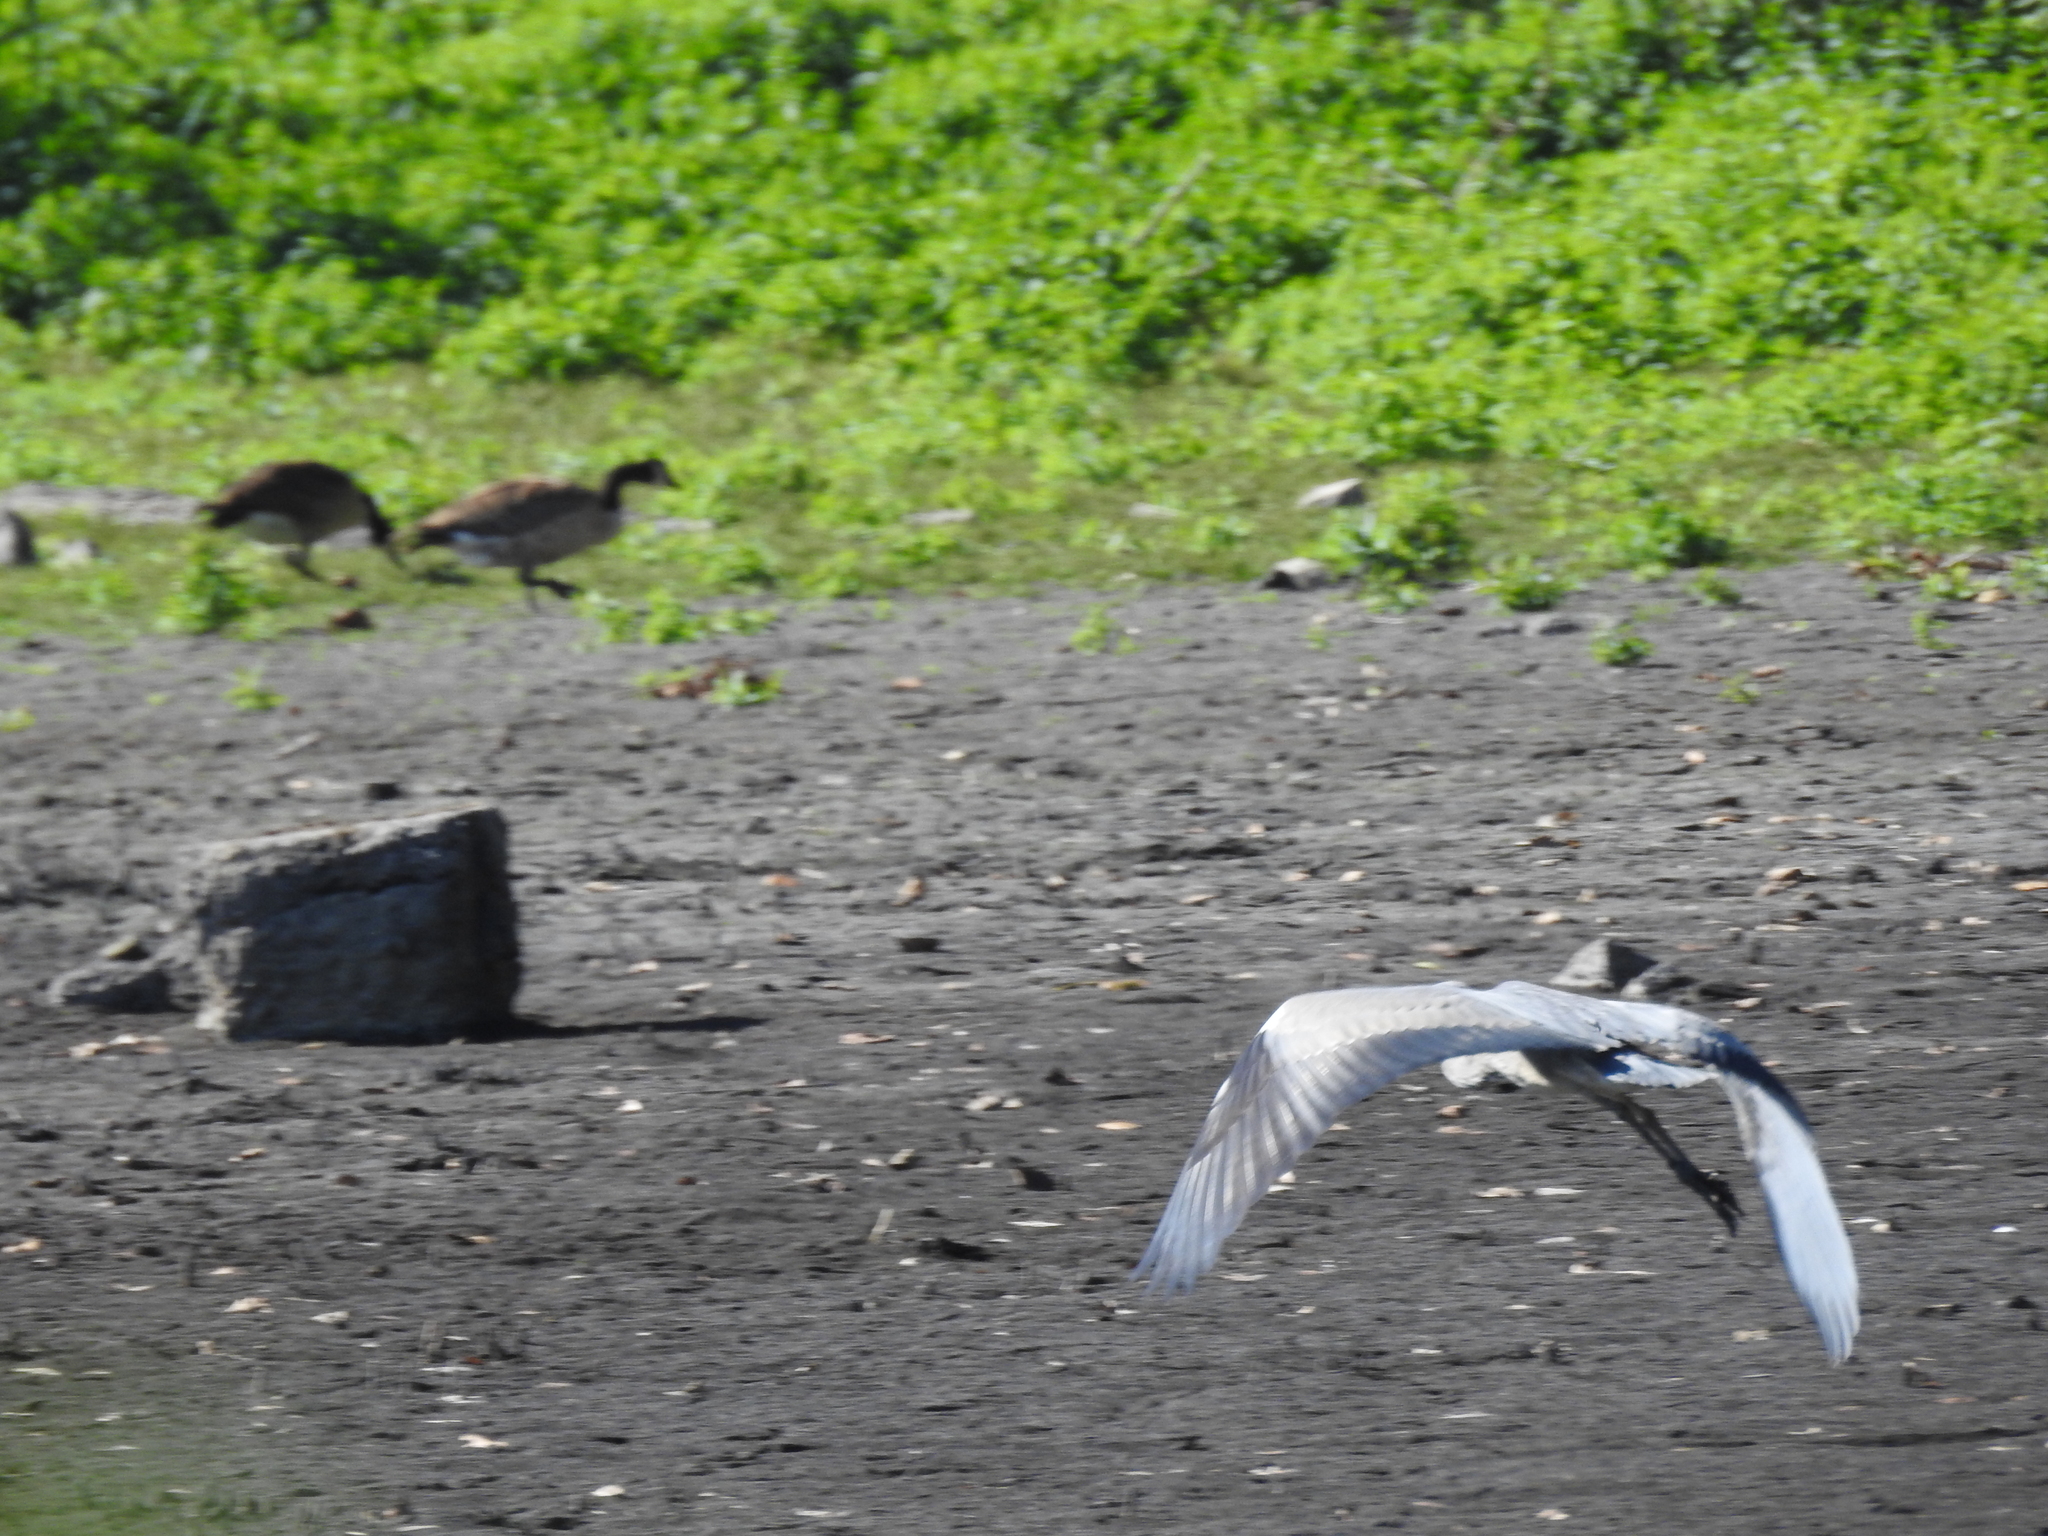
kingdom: Animalia
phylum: Chordata
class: Aves
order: Pelecaniformes
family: Ardeidae
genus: Ardea
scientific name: Ardea cinerea
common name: Grey heron
